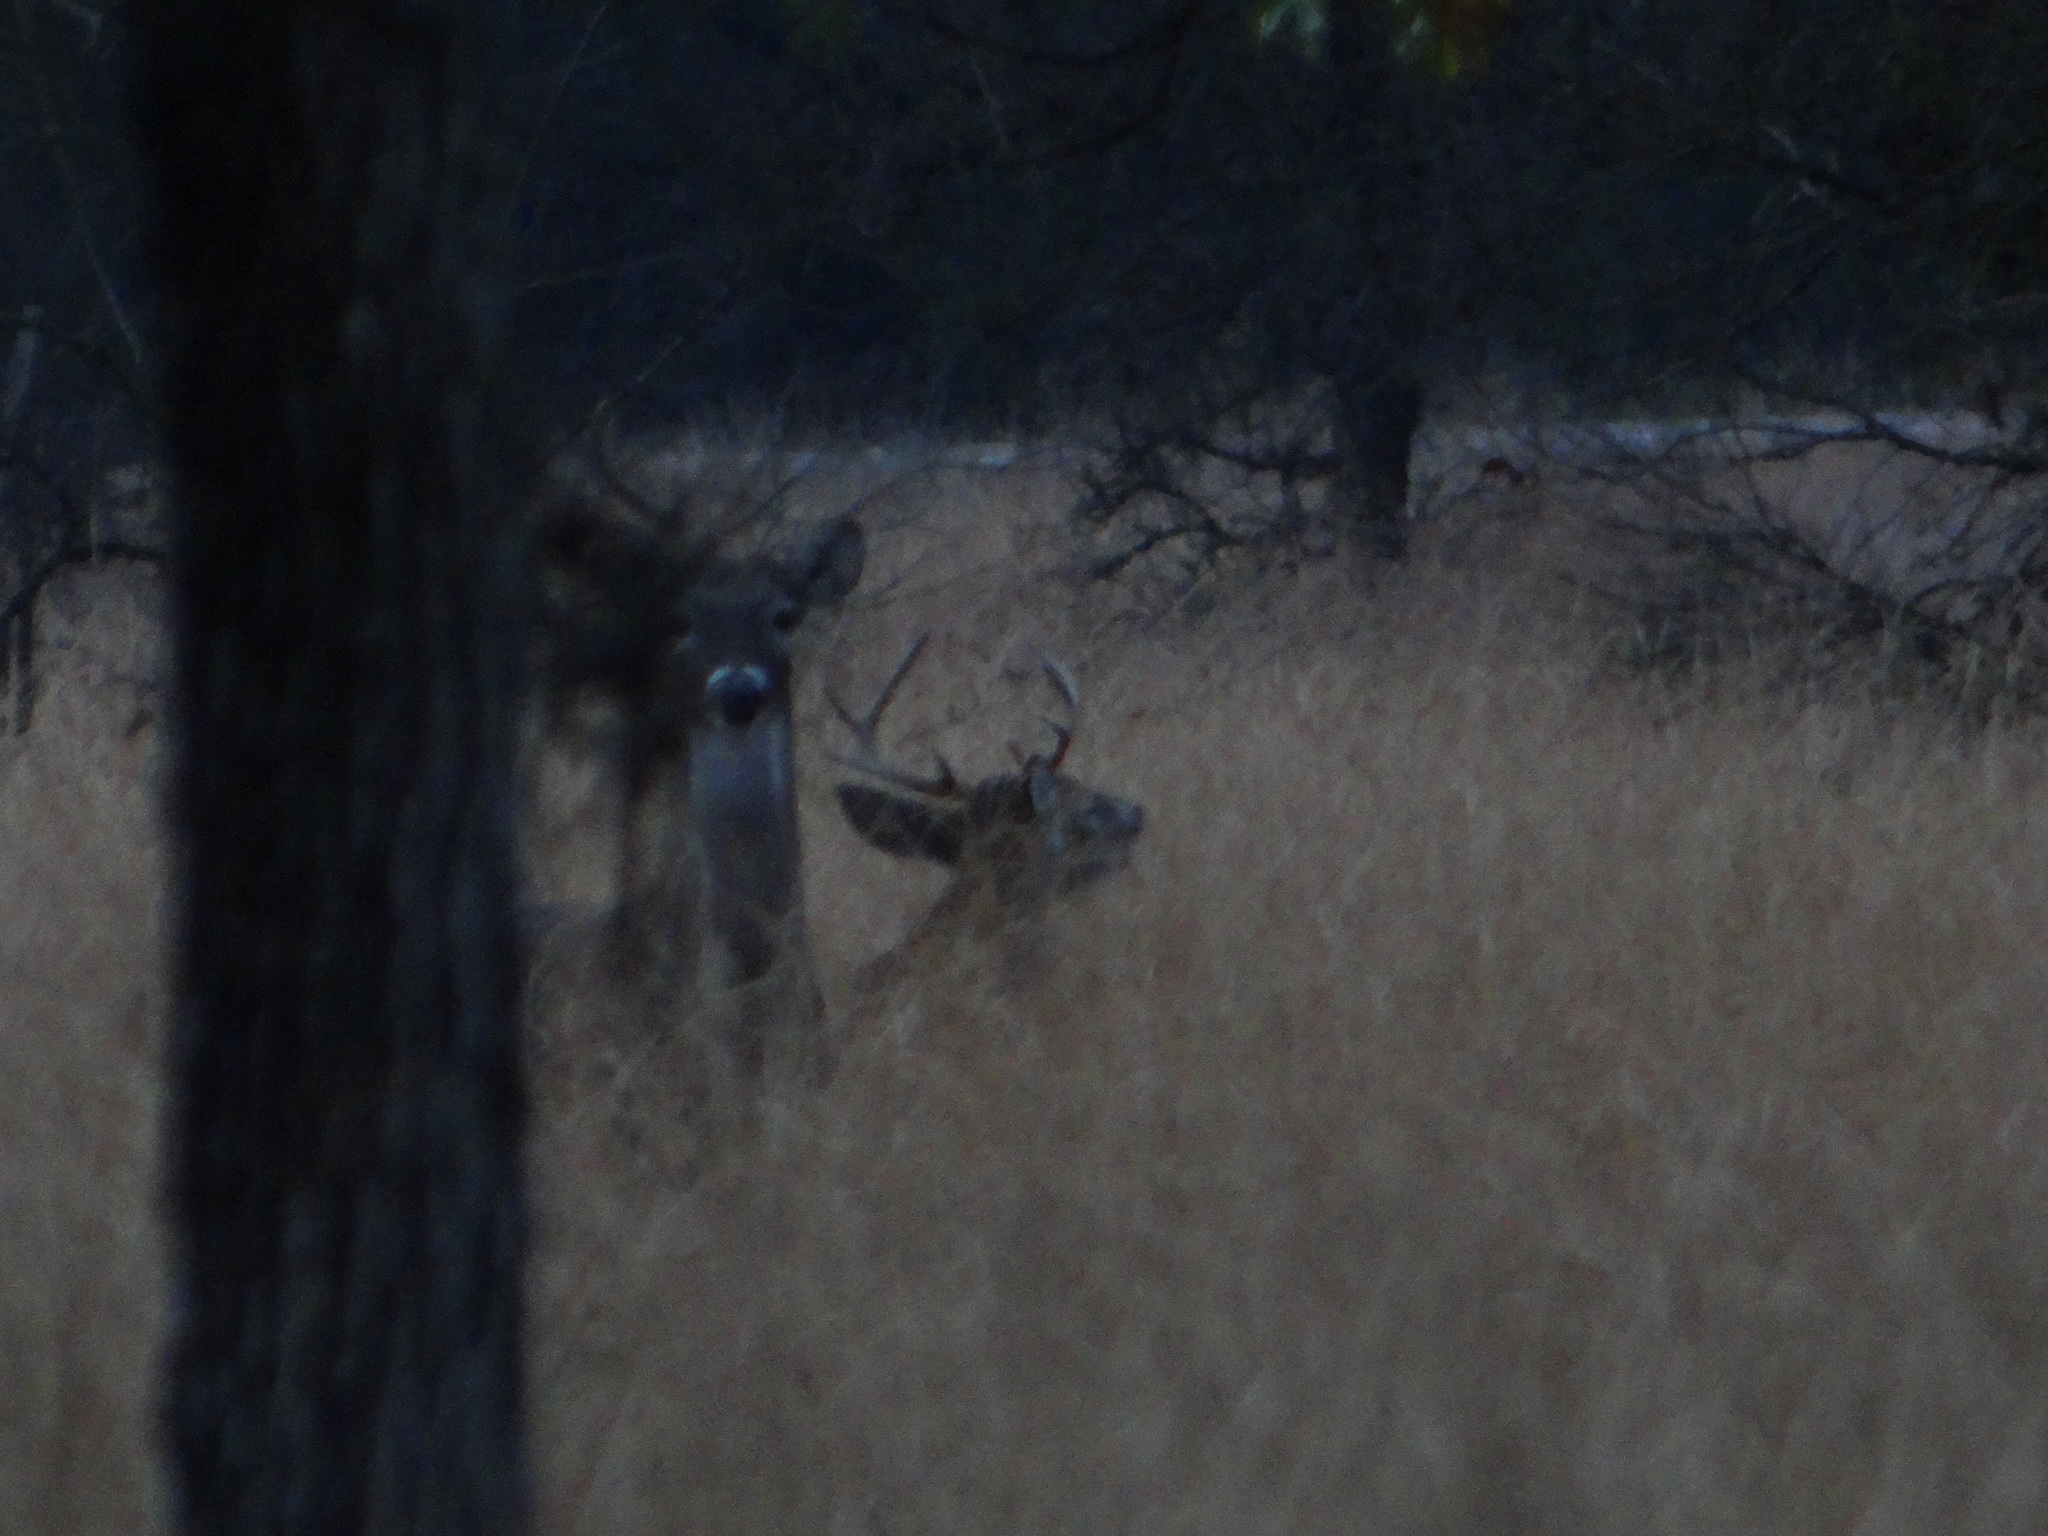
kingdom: Animalia
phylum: Chordata
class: Mammalia
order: Artiodactyla
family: Cervidae
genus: Odocoileus
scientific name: Odocoileus virginianus
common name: White-tailed deer
